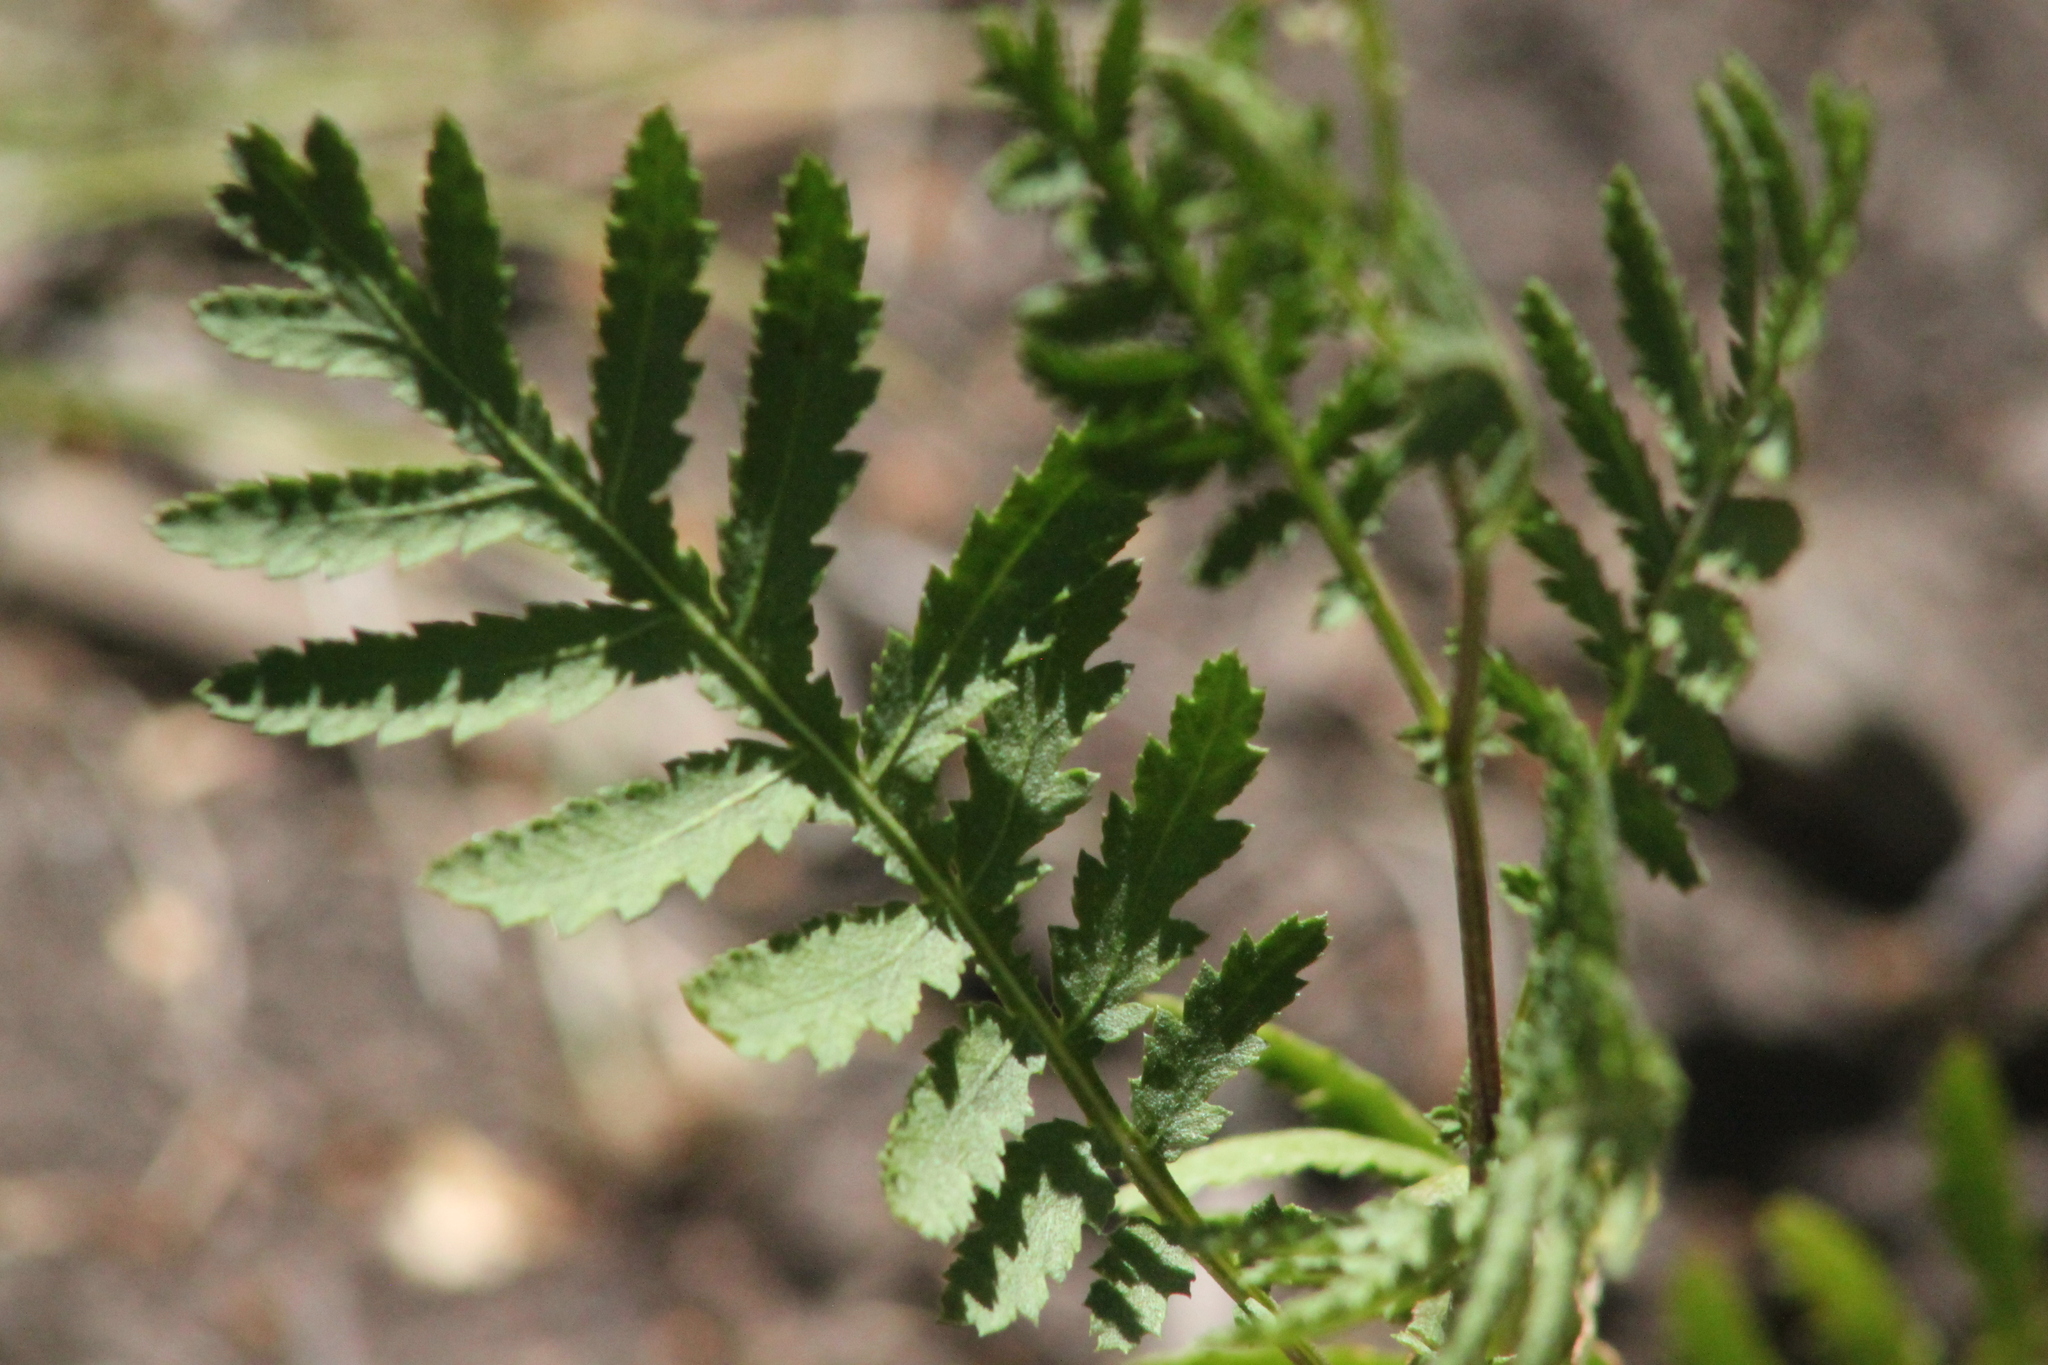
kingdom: Plantae
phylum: Tracheophyta
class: Magnoliopsida
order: Asterales
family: Asteraceae
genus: Tanacetum
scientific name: Tanacetum vulgare
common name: Common tansy
